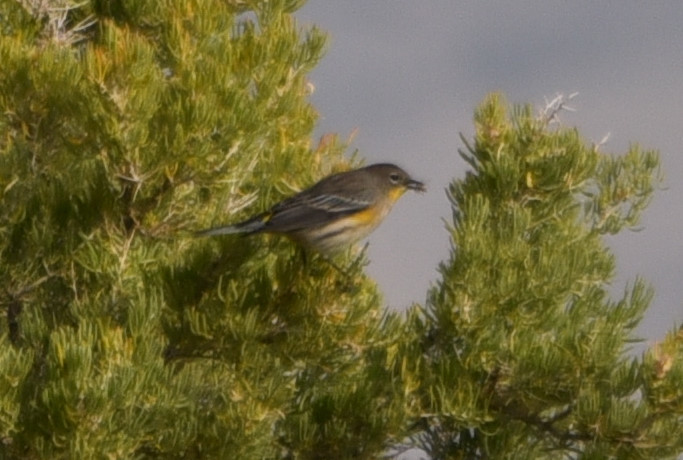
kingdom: Animalia
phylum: Chordata
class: Aves
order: Passeriformes
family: Parulidae
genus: Setophaga
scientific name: Setophaga coronata
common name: Myrtle warbler
